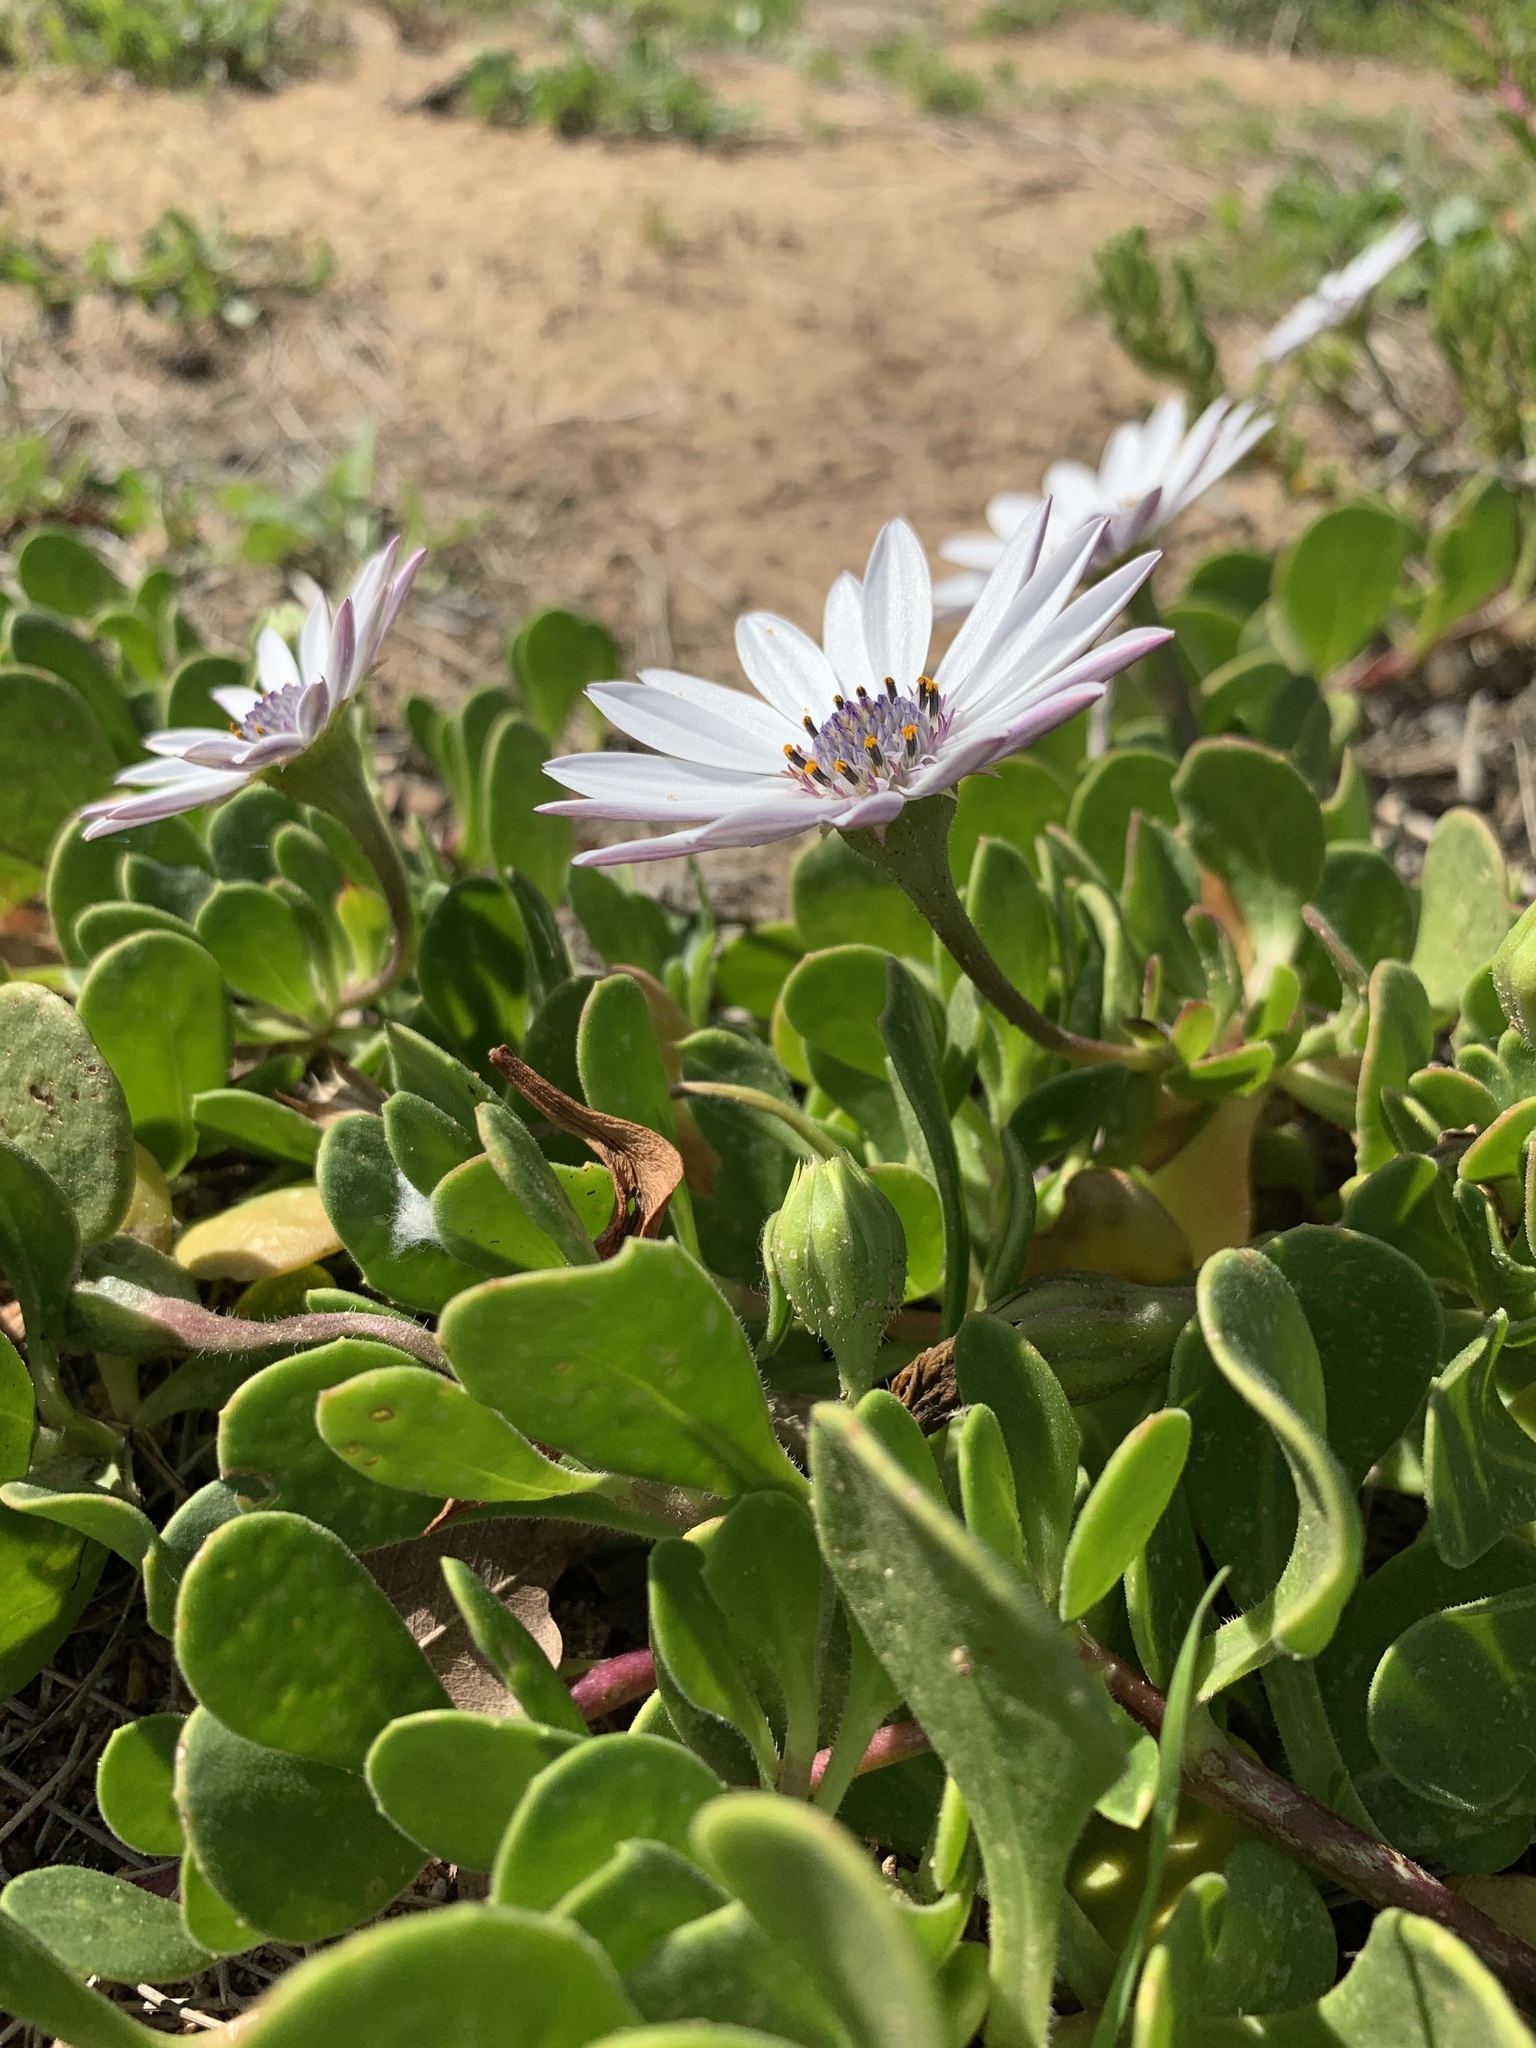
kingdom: Plantae
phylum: Tracheophyta
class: Magnoliopsida
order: Asterales
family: Asteraceae
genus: Dimorphotheca
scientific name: Dimorphotheca fruticosa
